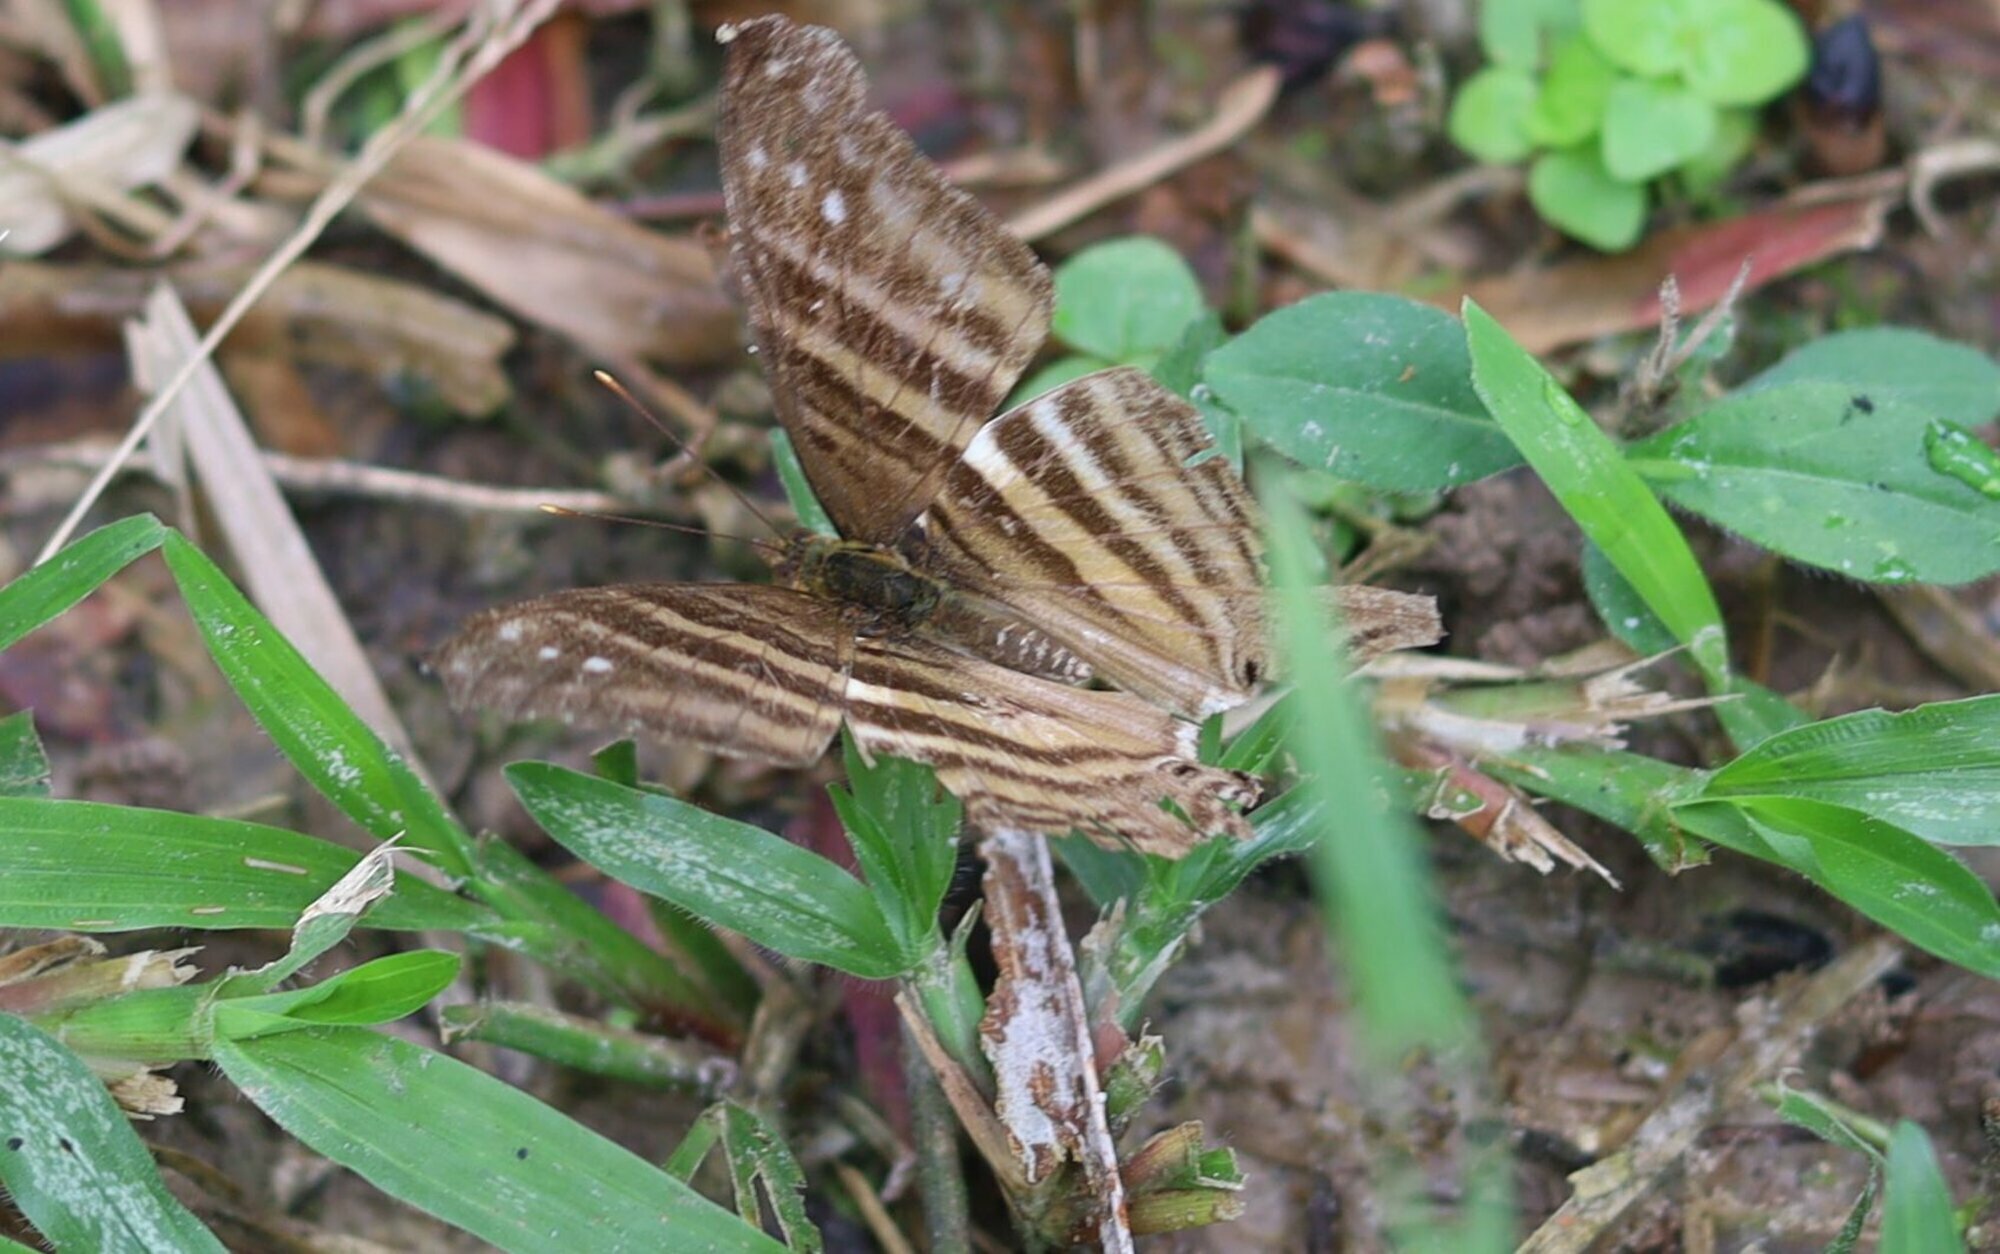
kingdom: Animalia
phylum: Arthropoda
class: Insecta
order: Lepidoptera
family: Nymphalidae
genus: Marpesia
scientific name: Marpesia chiron
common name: Many-banded daggerwing
